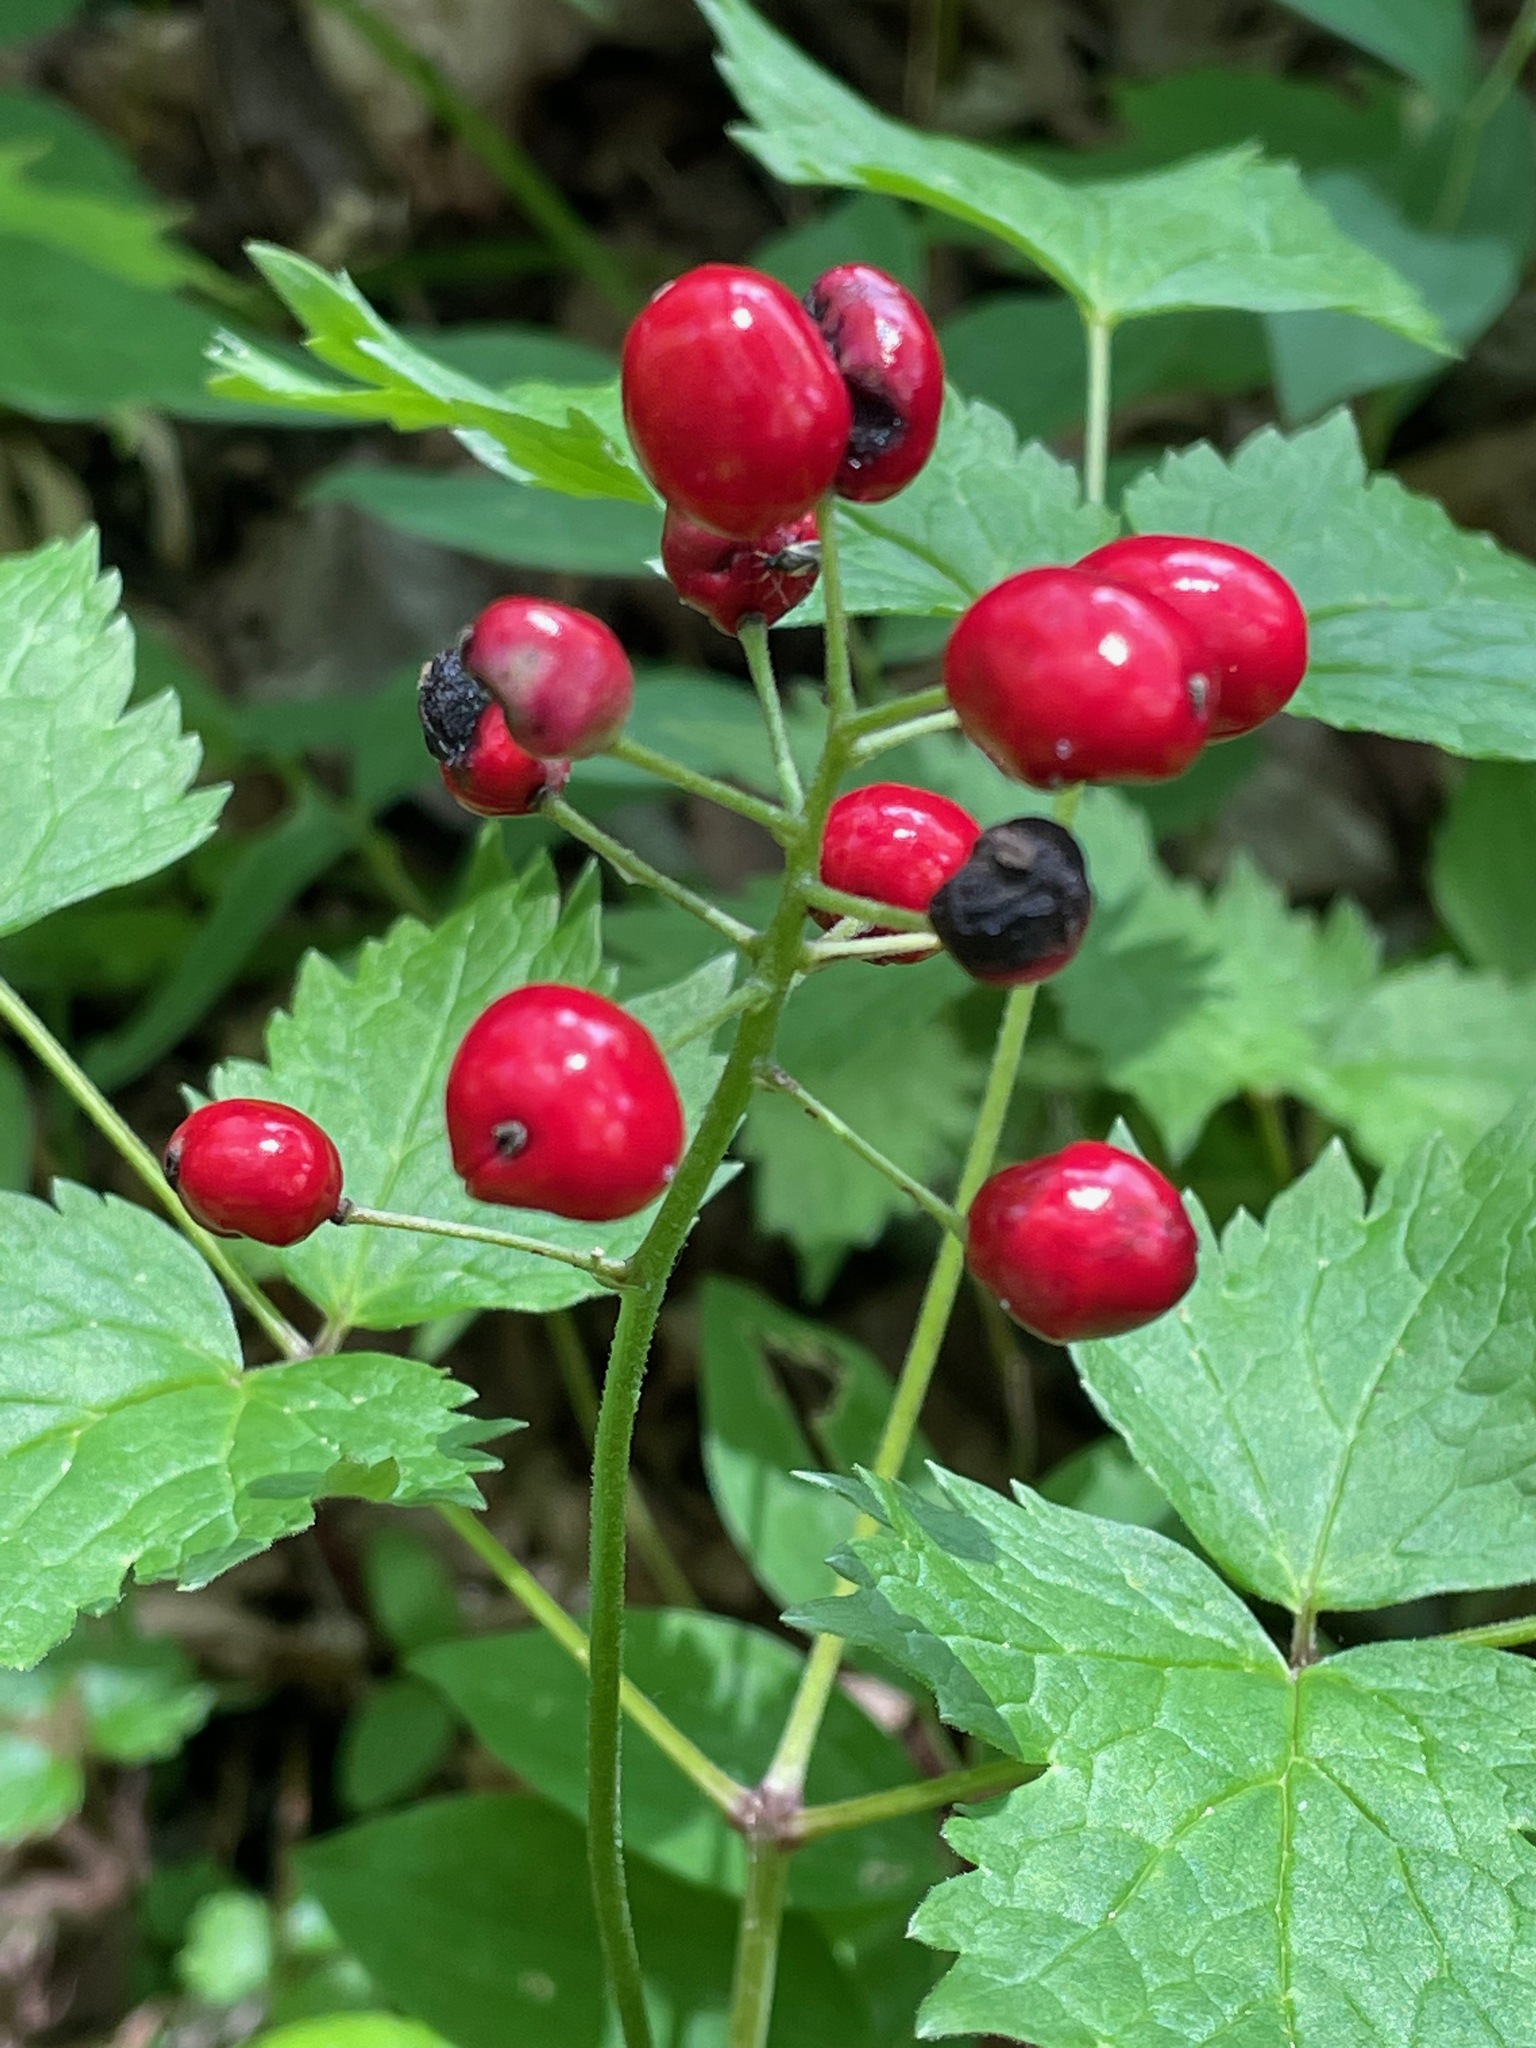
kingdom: Plantae
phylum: Tracheophyta
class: Magnoliopsida
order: Ranunculales
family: Ranunculaceae
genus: Actaea
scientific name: Actaea rubra
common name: Red baneberry
